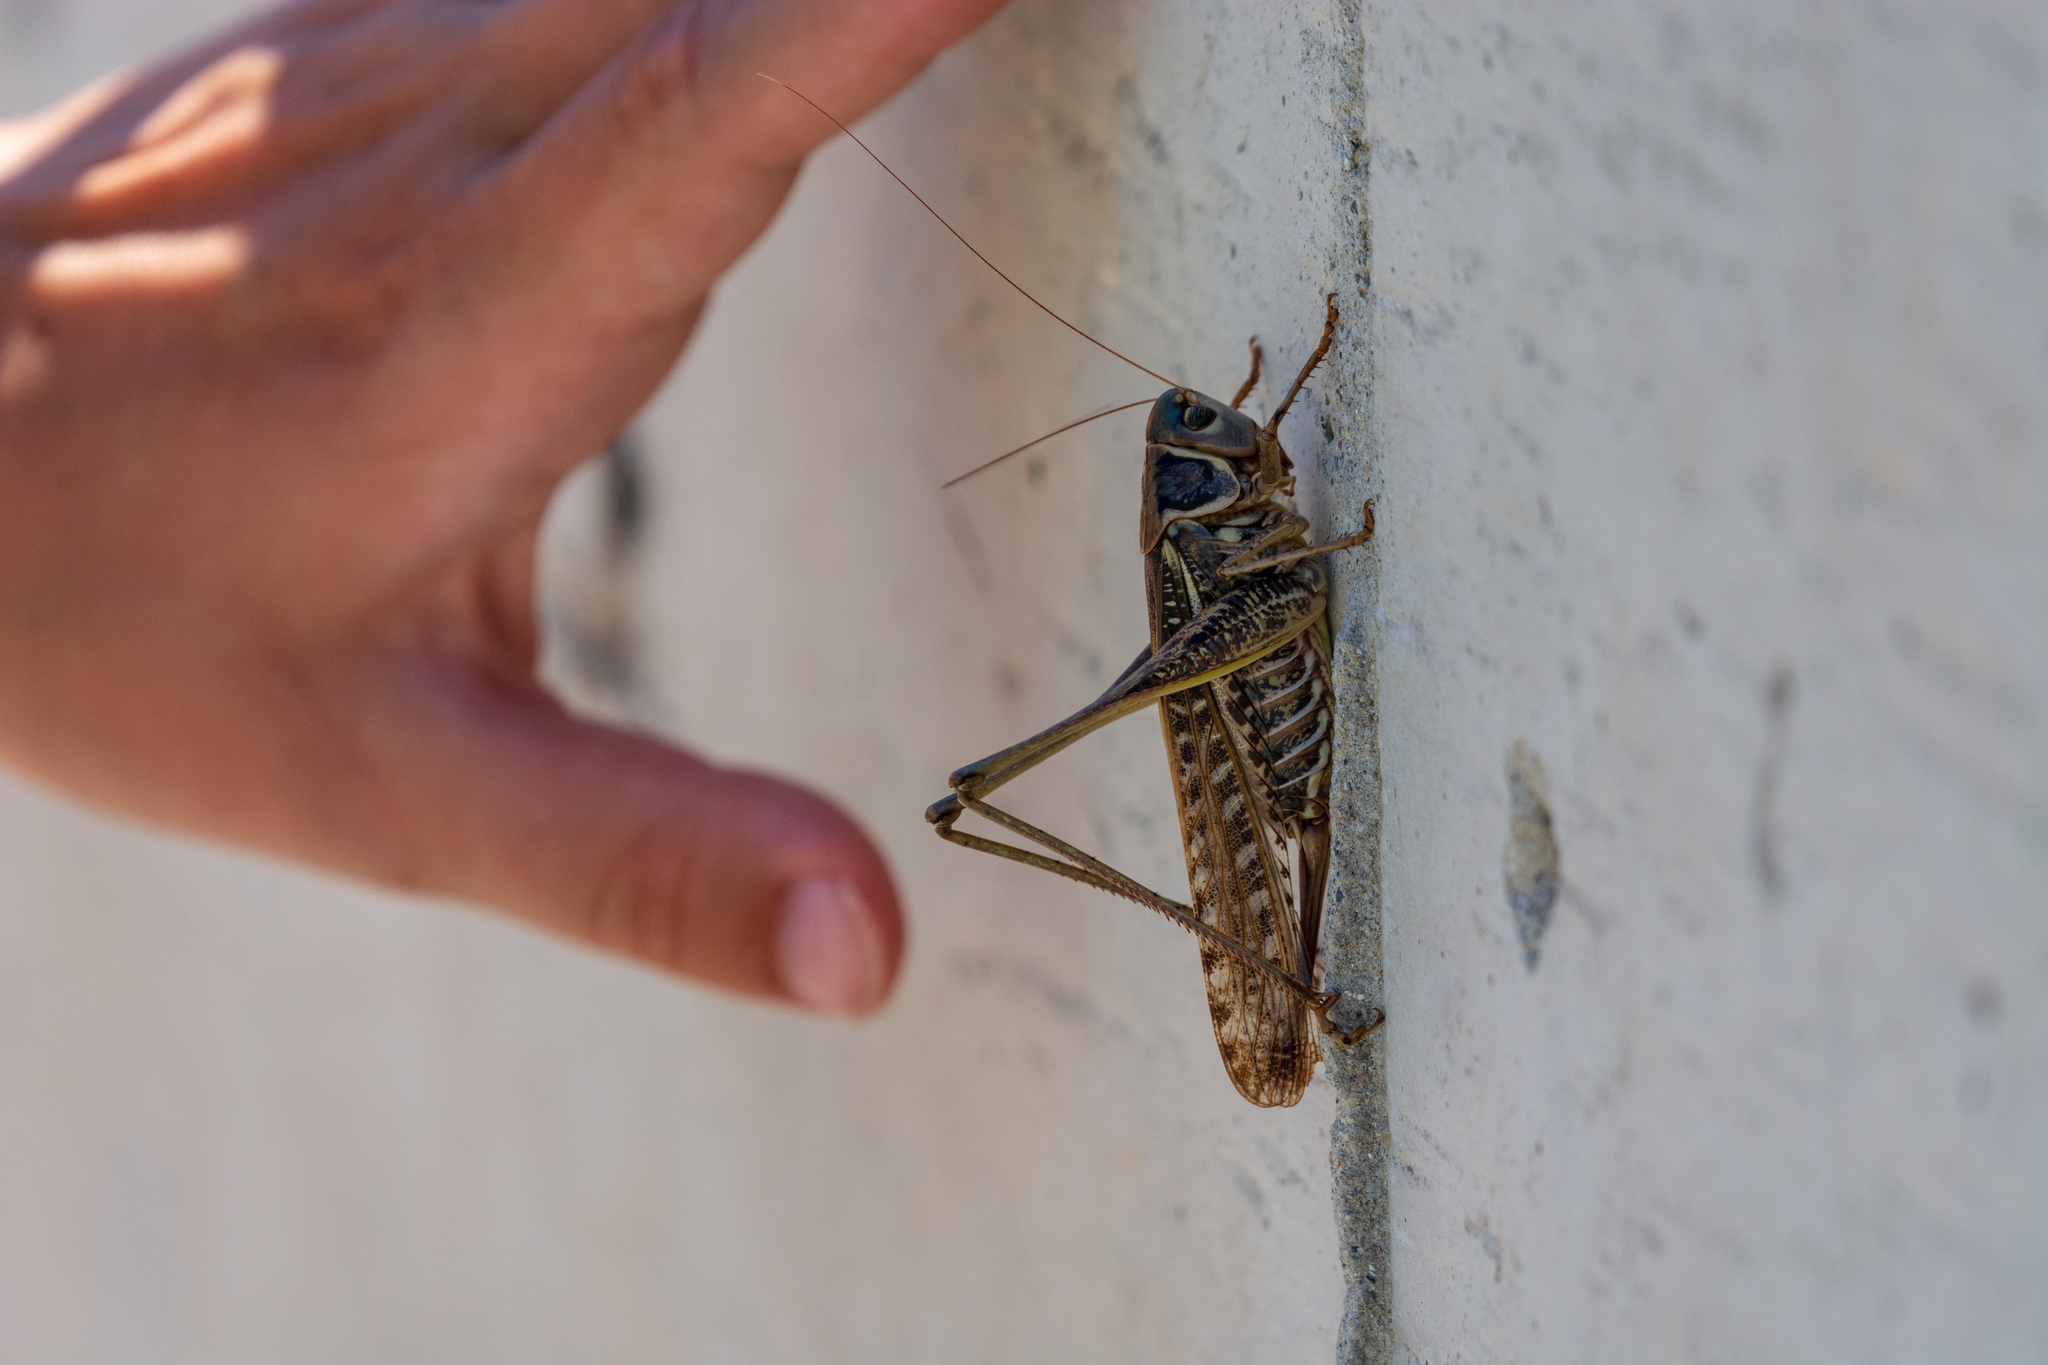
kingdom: Animalia
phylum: Arthropoda
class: Insecta
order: Orthoptera
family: Tettigoniidae
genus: Decticus
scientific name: Decticus albifrons
